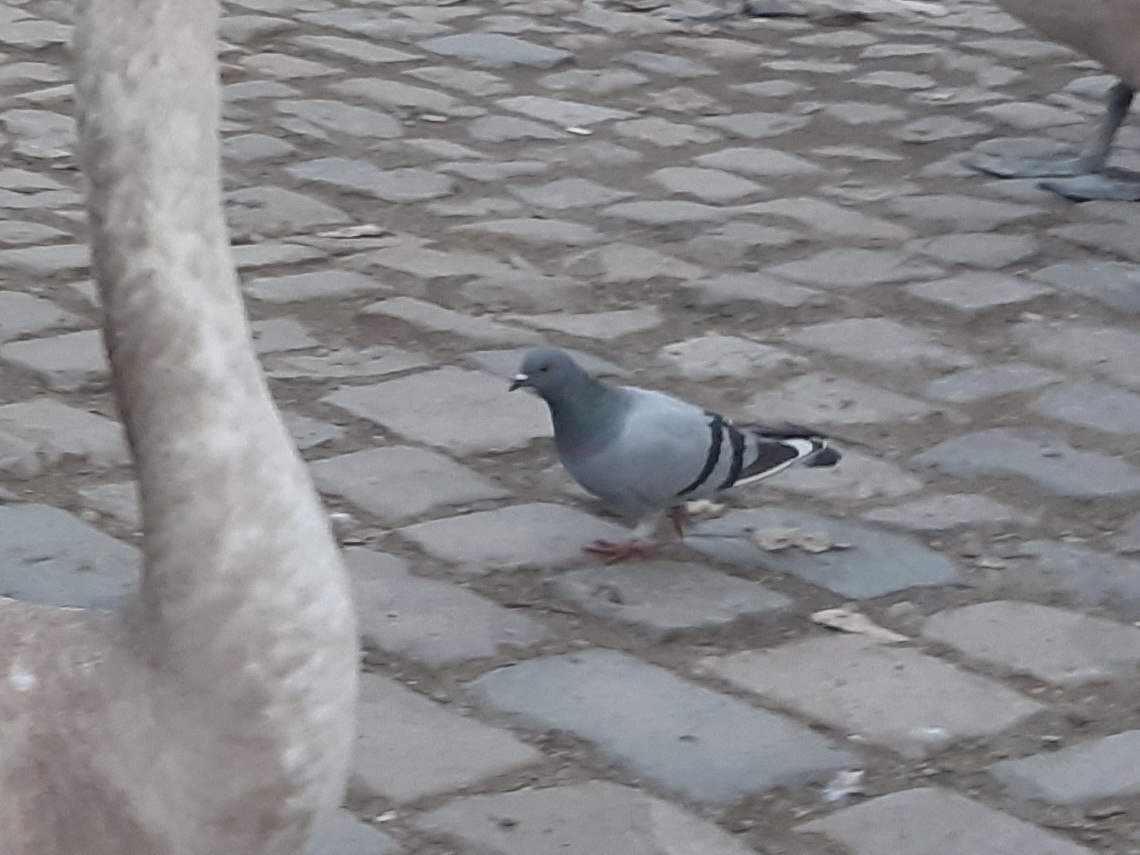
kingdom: Animalia
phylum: Chordata
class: Aves
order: Columbiformes
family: Columbidae
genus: Columba
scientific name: Columba livia
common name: Rock pigeon
